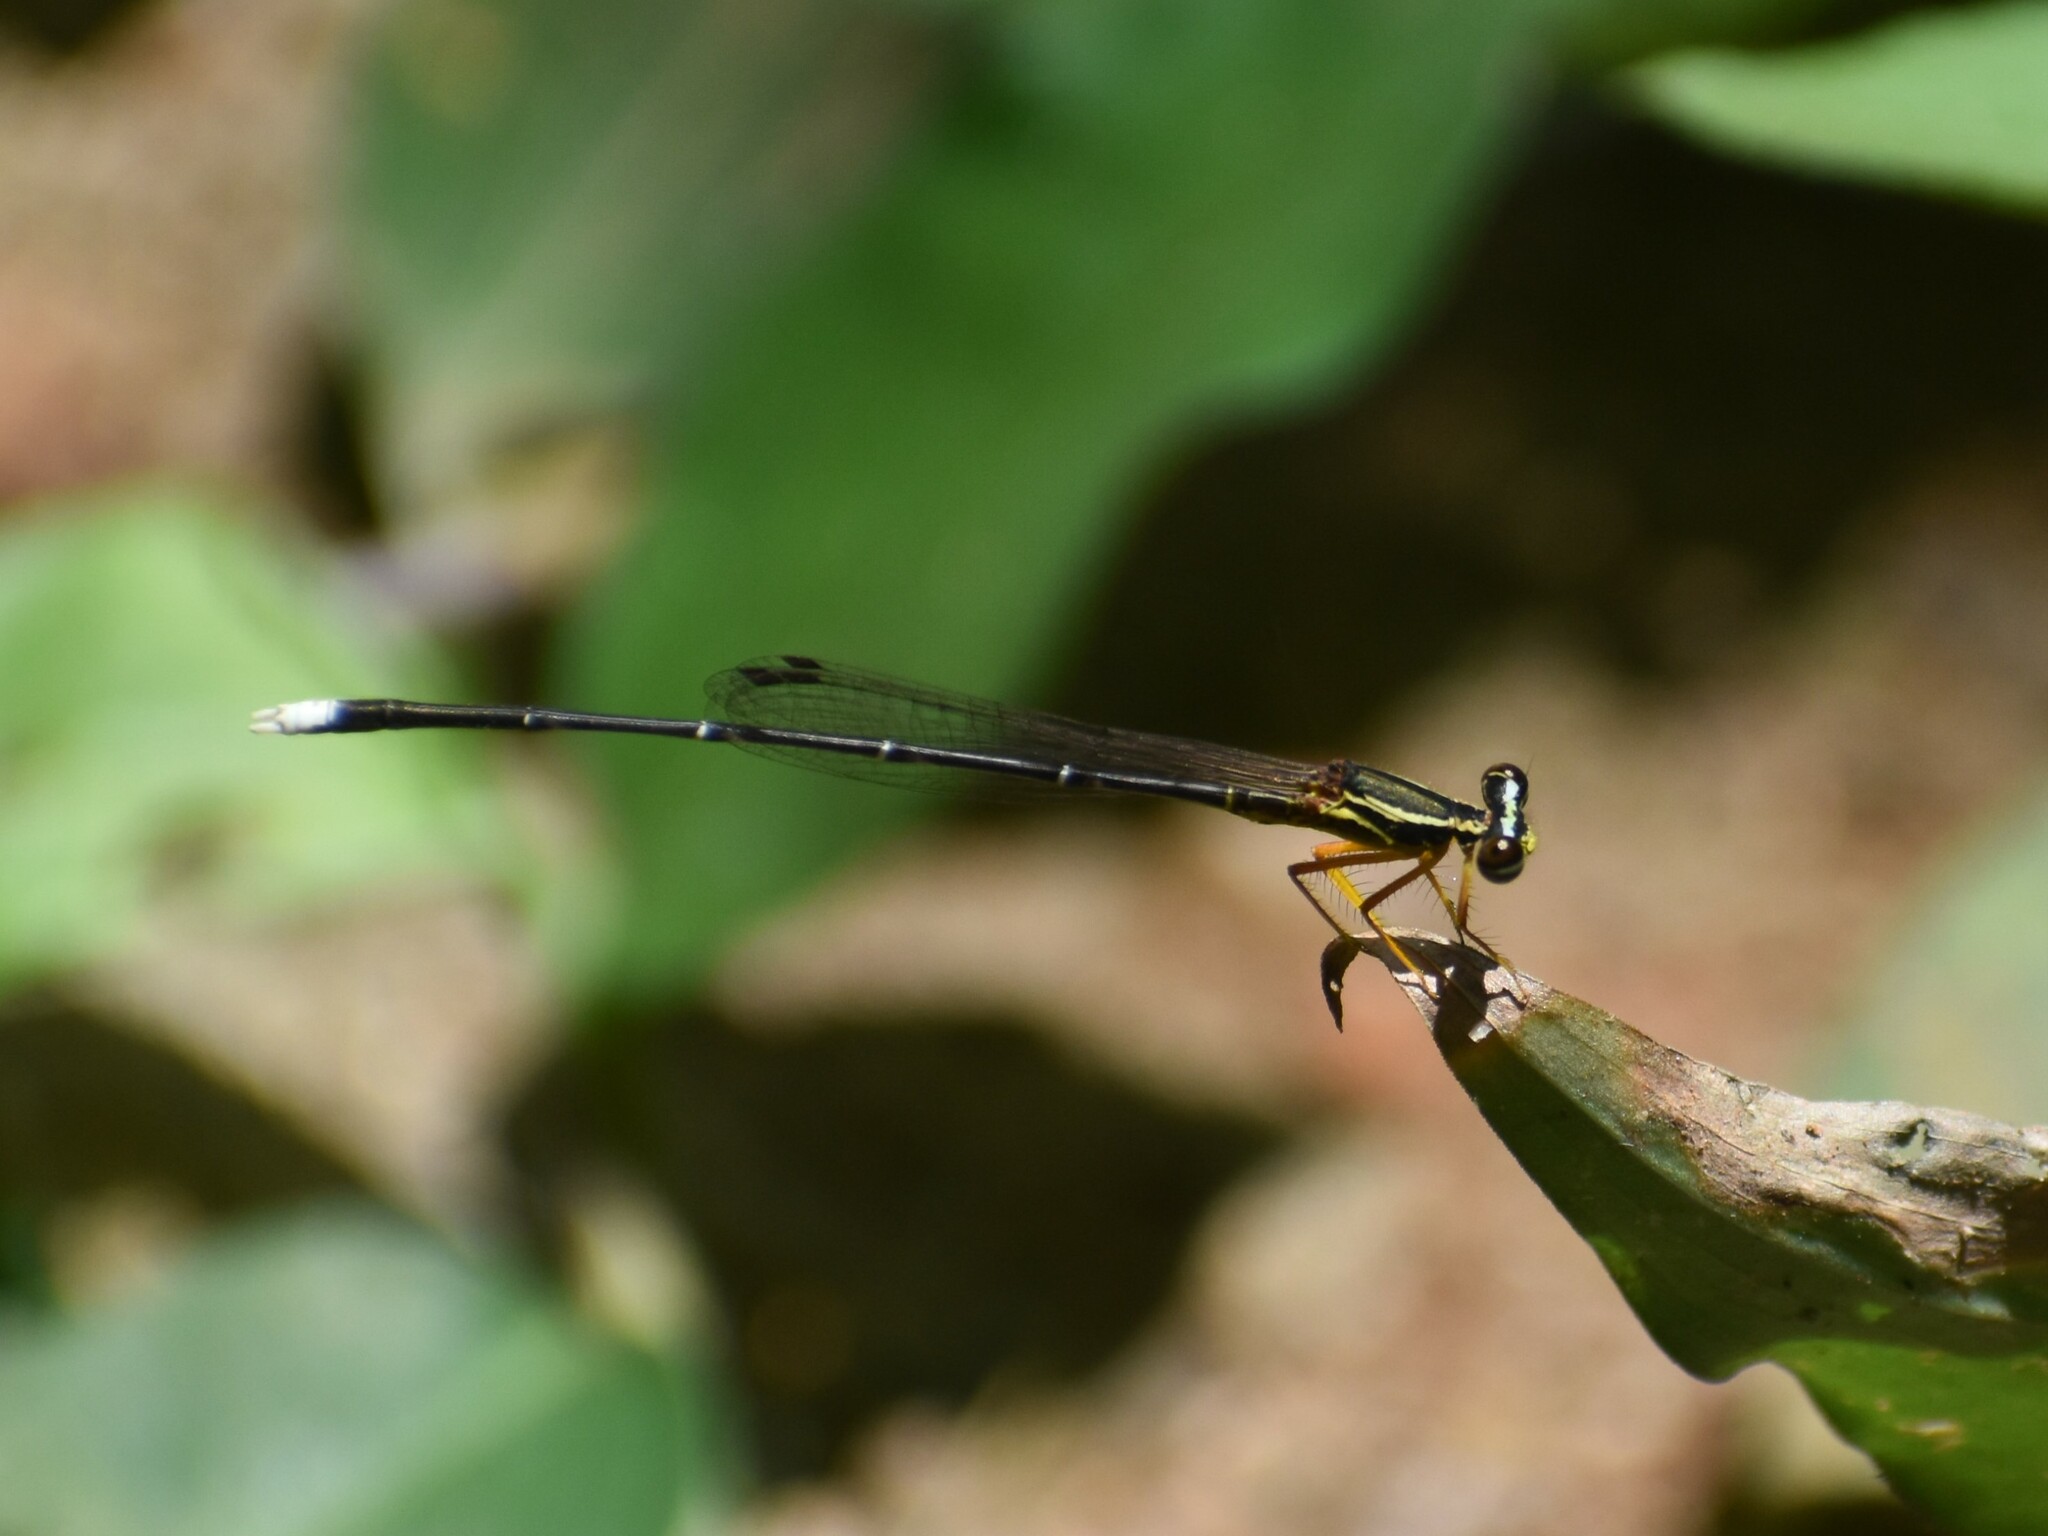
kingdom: Animalia
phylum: Arthropoda
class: Insecta
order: Odonata
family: Platycnemididae
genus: Copera
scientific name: Copera marginipes
